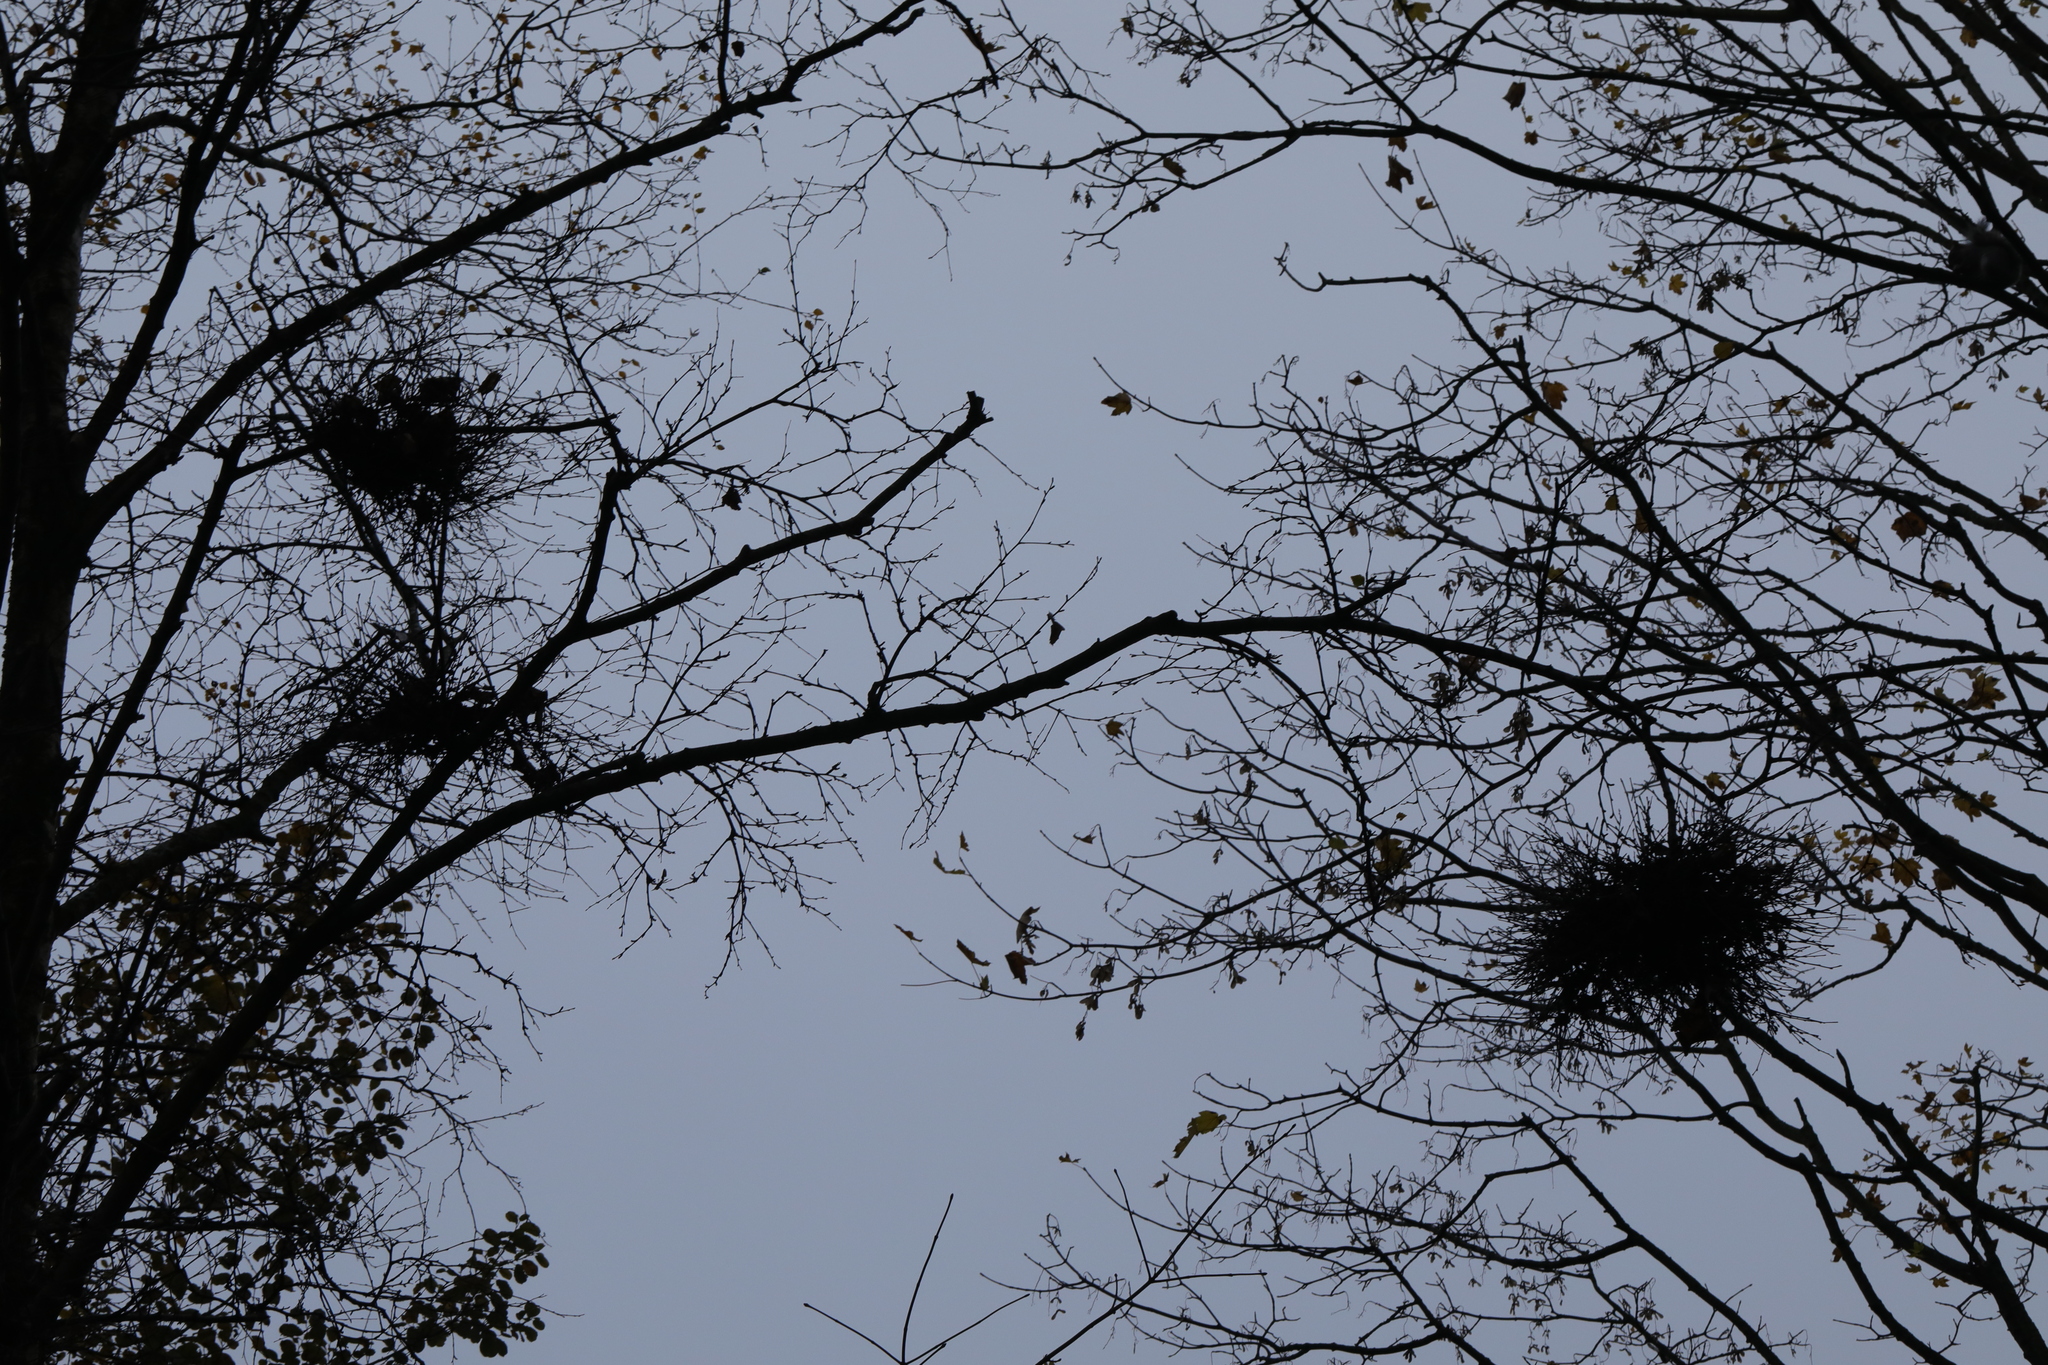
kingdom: Fungi
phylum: Ascomycota
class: Taphrinomycetes
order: Taphrinales
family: Taphrinaceae
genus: Taphrina
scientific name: Taphrina betulina
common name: Birch besom
